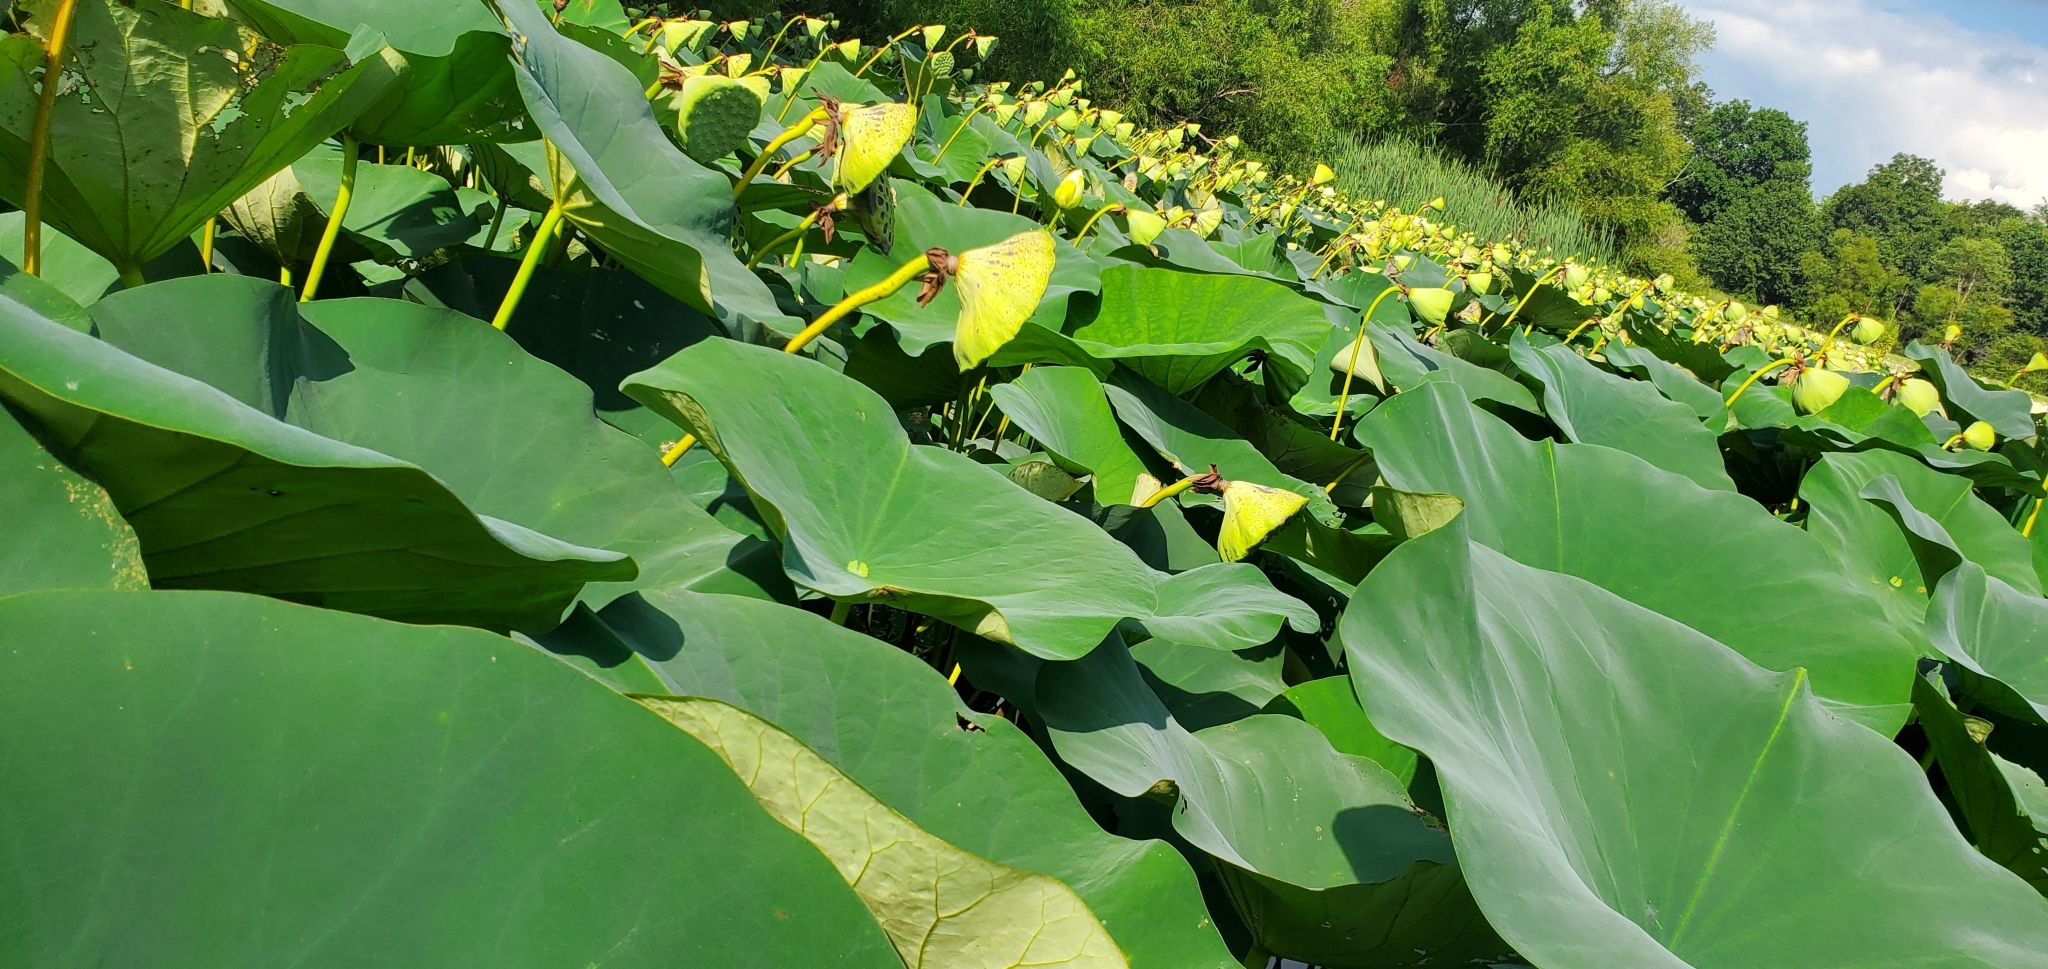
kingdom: Plantae
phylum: Tracheophyta
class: Magnoliopsida
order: Proteales
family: Nelumbonaceae
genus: Nelumbo
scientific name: Nelumbo lutea
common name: American lotus
